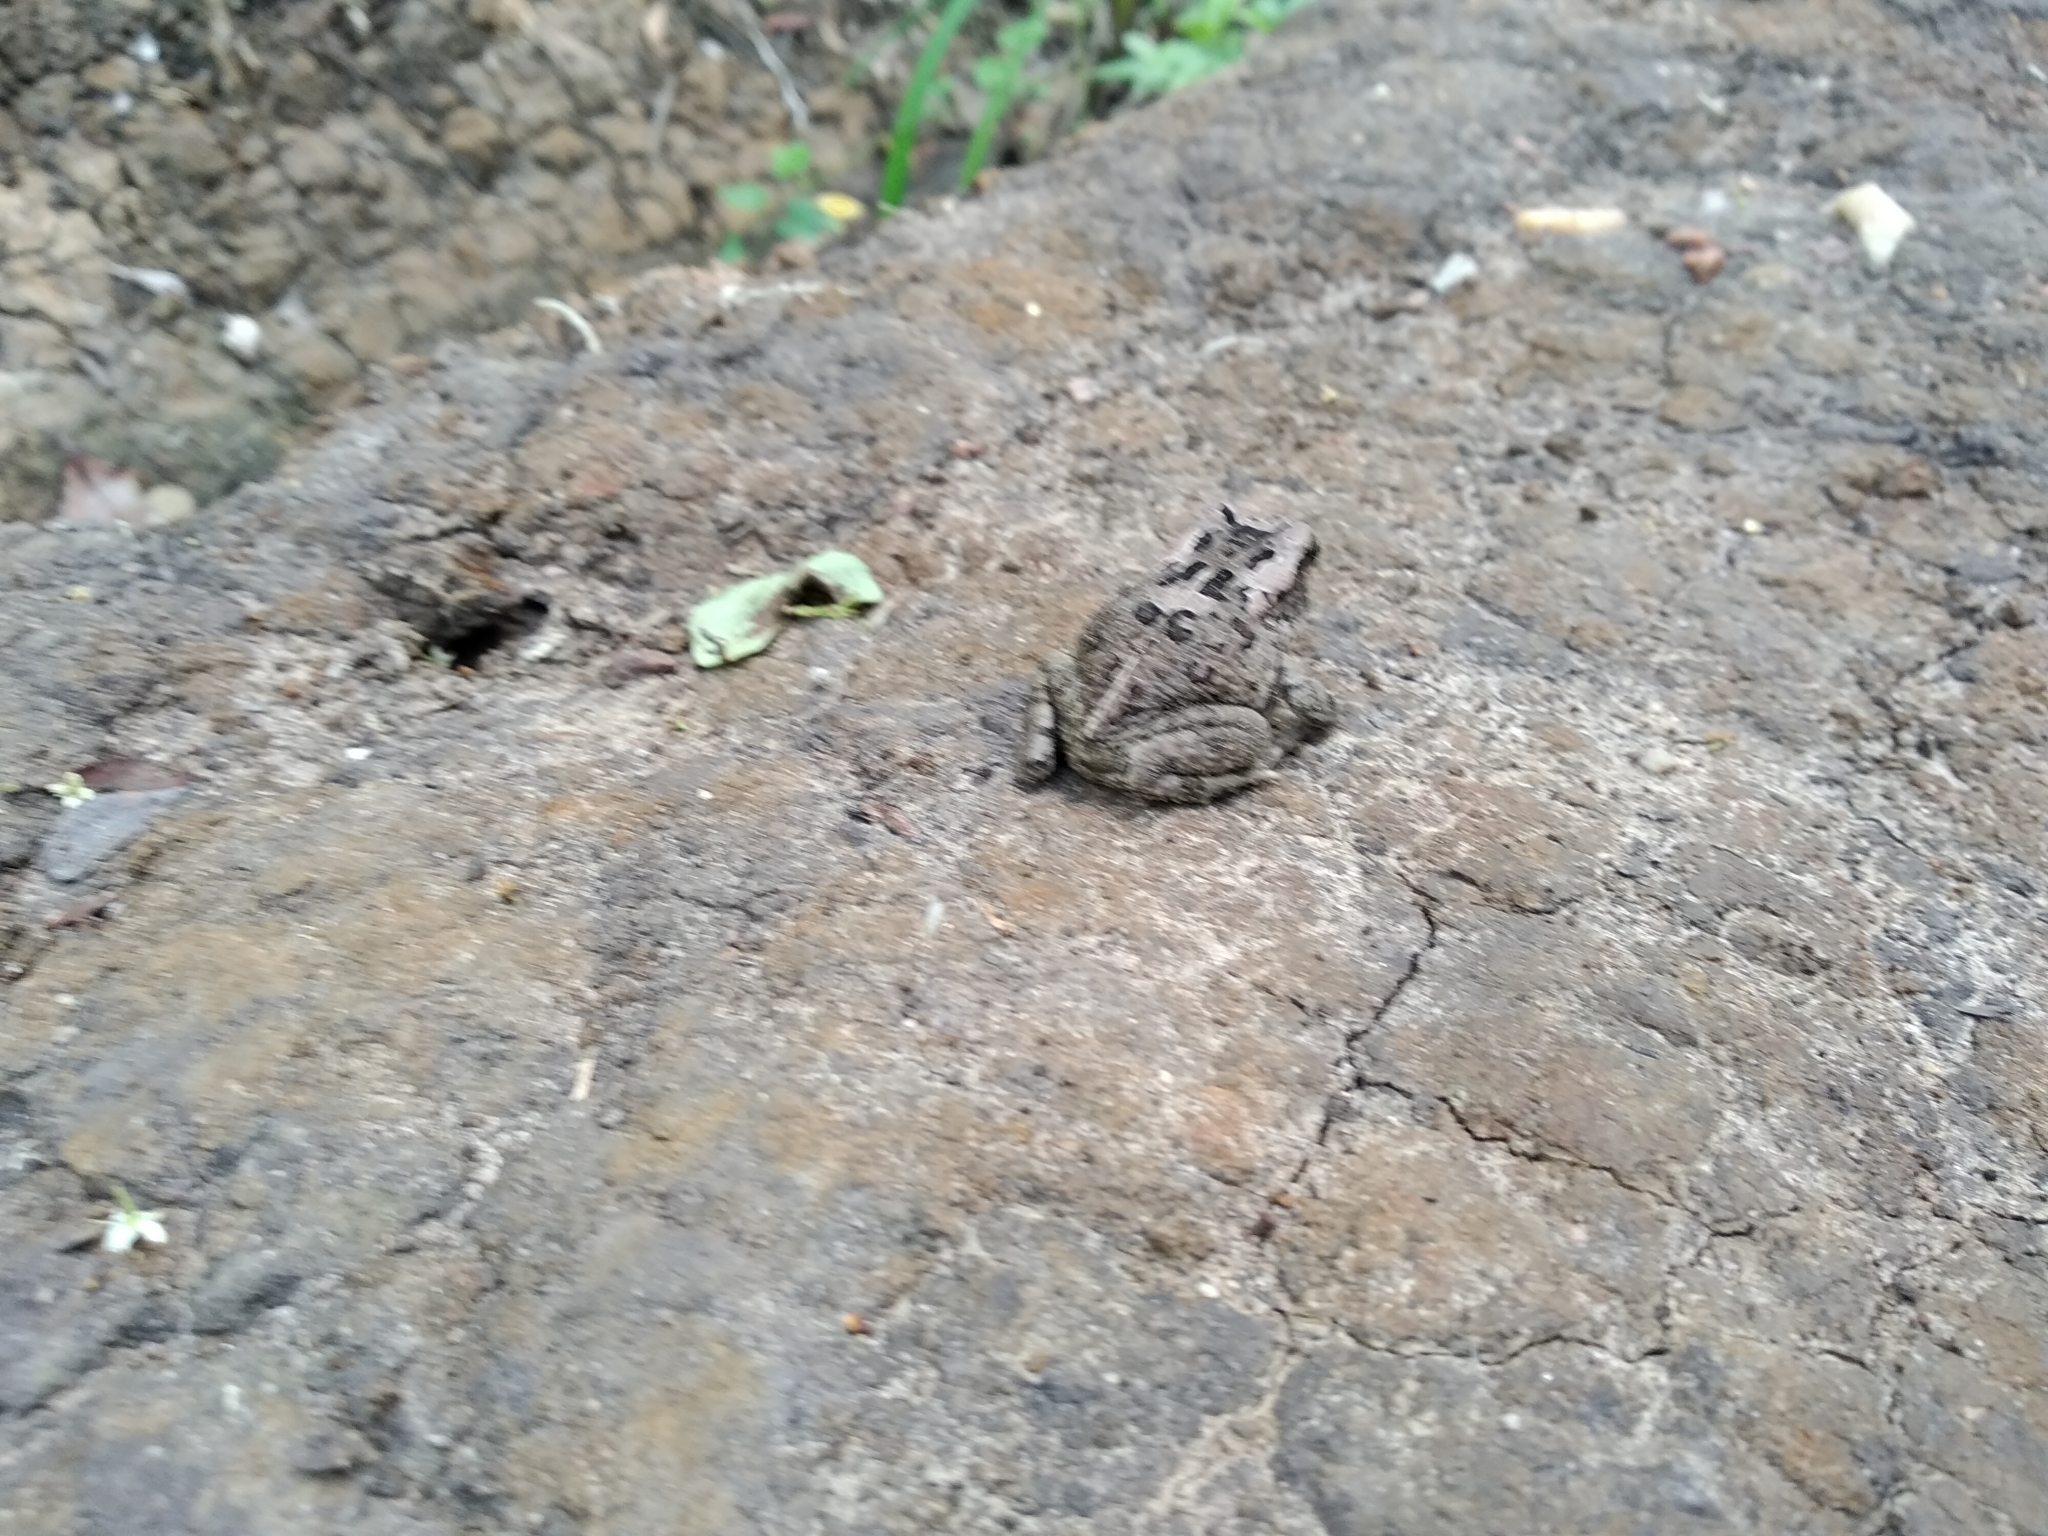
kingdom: Animalia
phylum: Chordata
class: Amphibia
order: Anura
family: Bufonidae
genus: Sclerophrys
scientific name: Sclerophrys capensis
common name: Ranger’s toad
